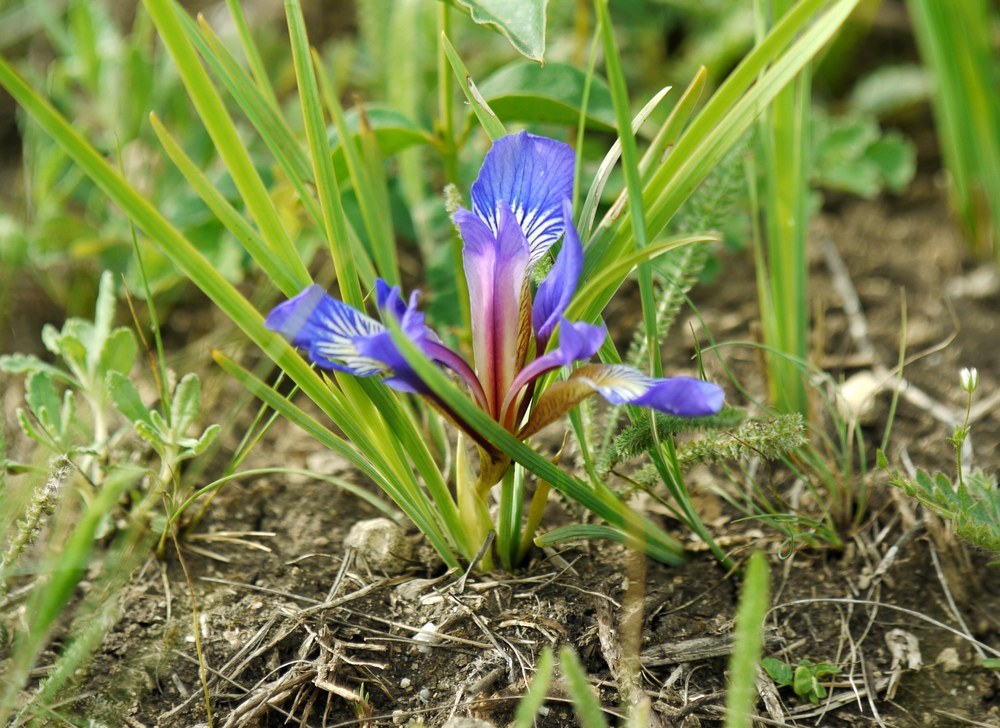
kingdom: Plantae
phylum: Tracheophyta
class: Liliopsida
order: Asparagales
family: Iridaceae
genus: Iris
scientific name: Iris pontica
